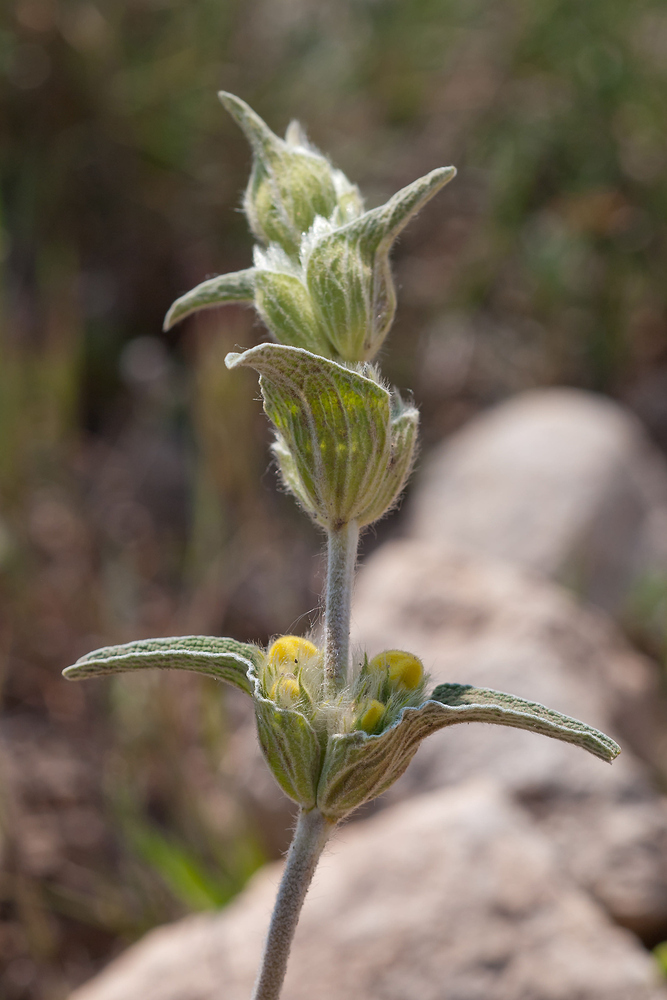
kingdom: Plantae
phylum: Tracheophyta
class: Magnoliopsida
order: Lamiales
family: Lamiaceae
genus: Phlomis
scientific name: Phlomis lychnitis
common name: Lampwickplant
